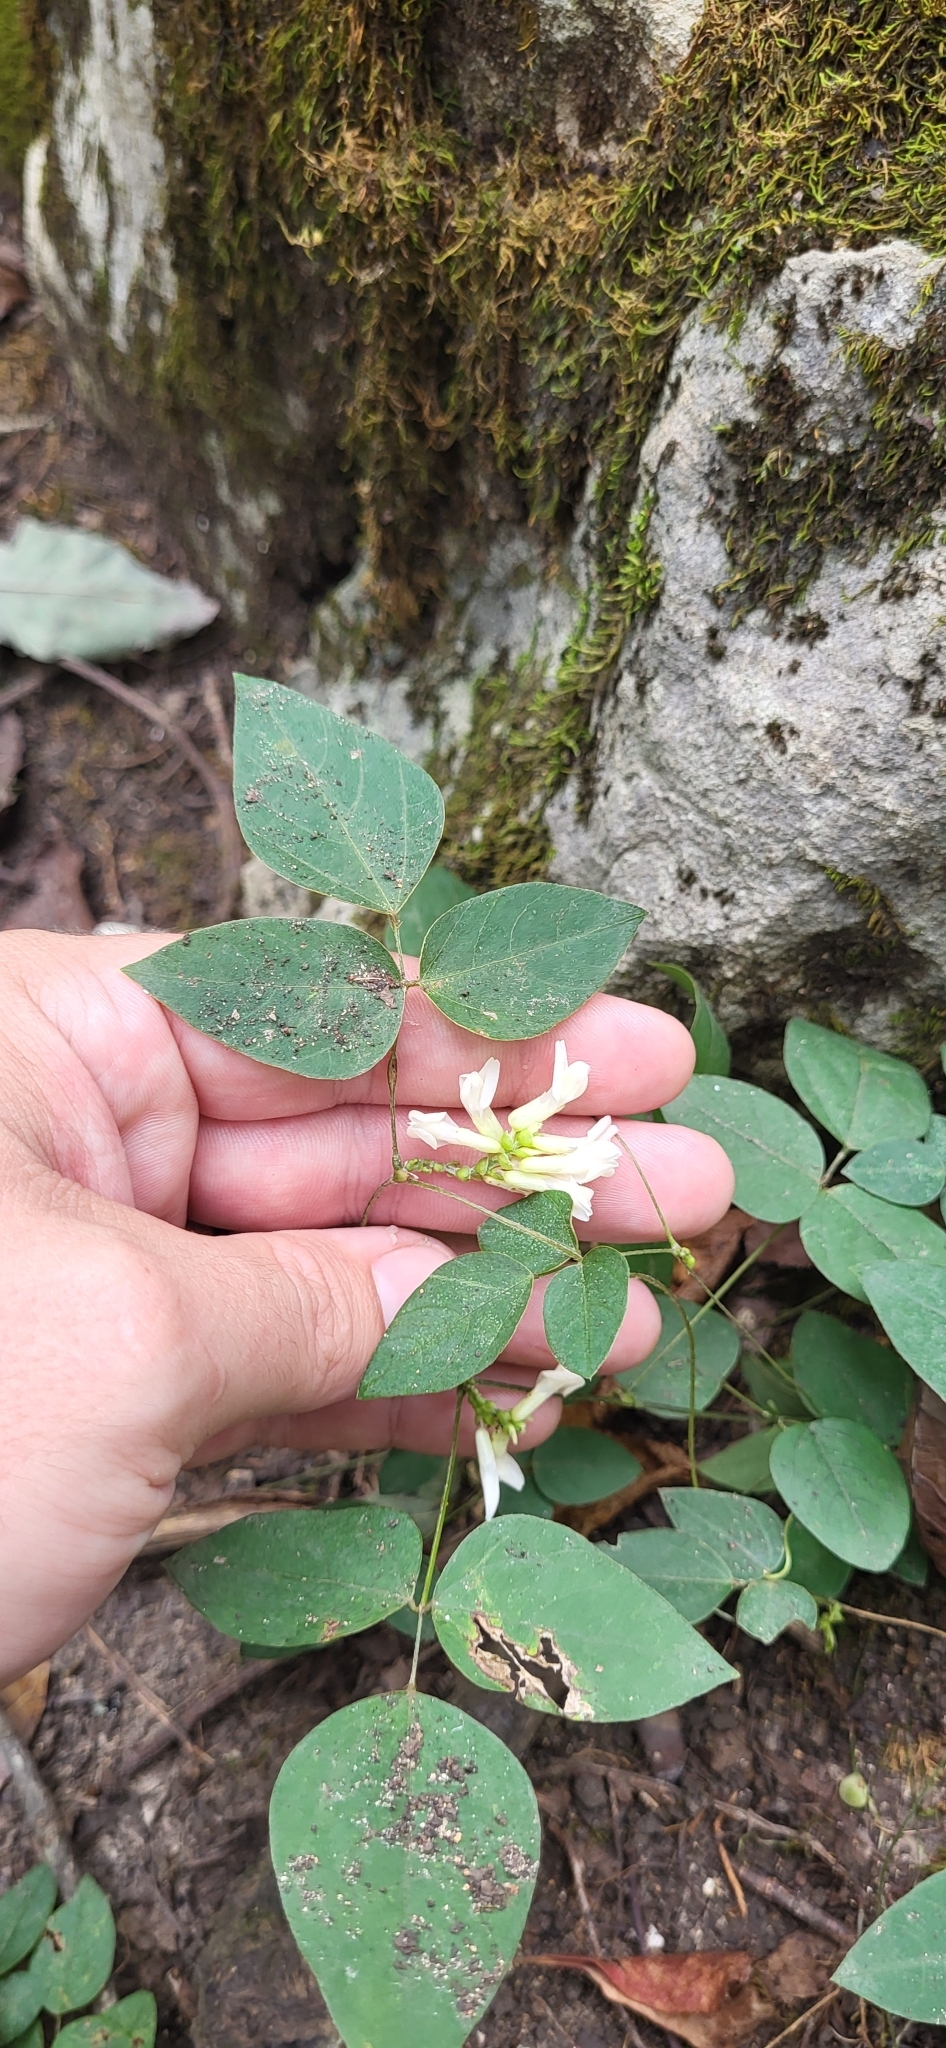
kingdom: Plantae
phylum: Tracheophyta
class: Magnoliopsida
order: Fabales
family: Fabaceae
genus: Amphicarpaea
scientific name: Amphicarpaea bracteata
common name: American hog peanut
